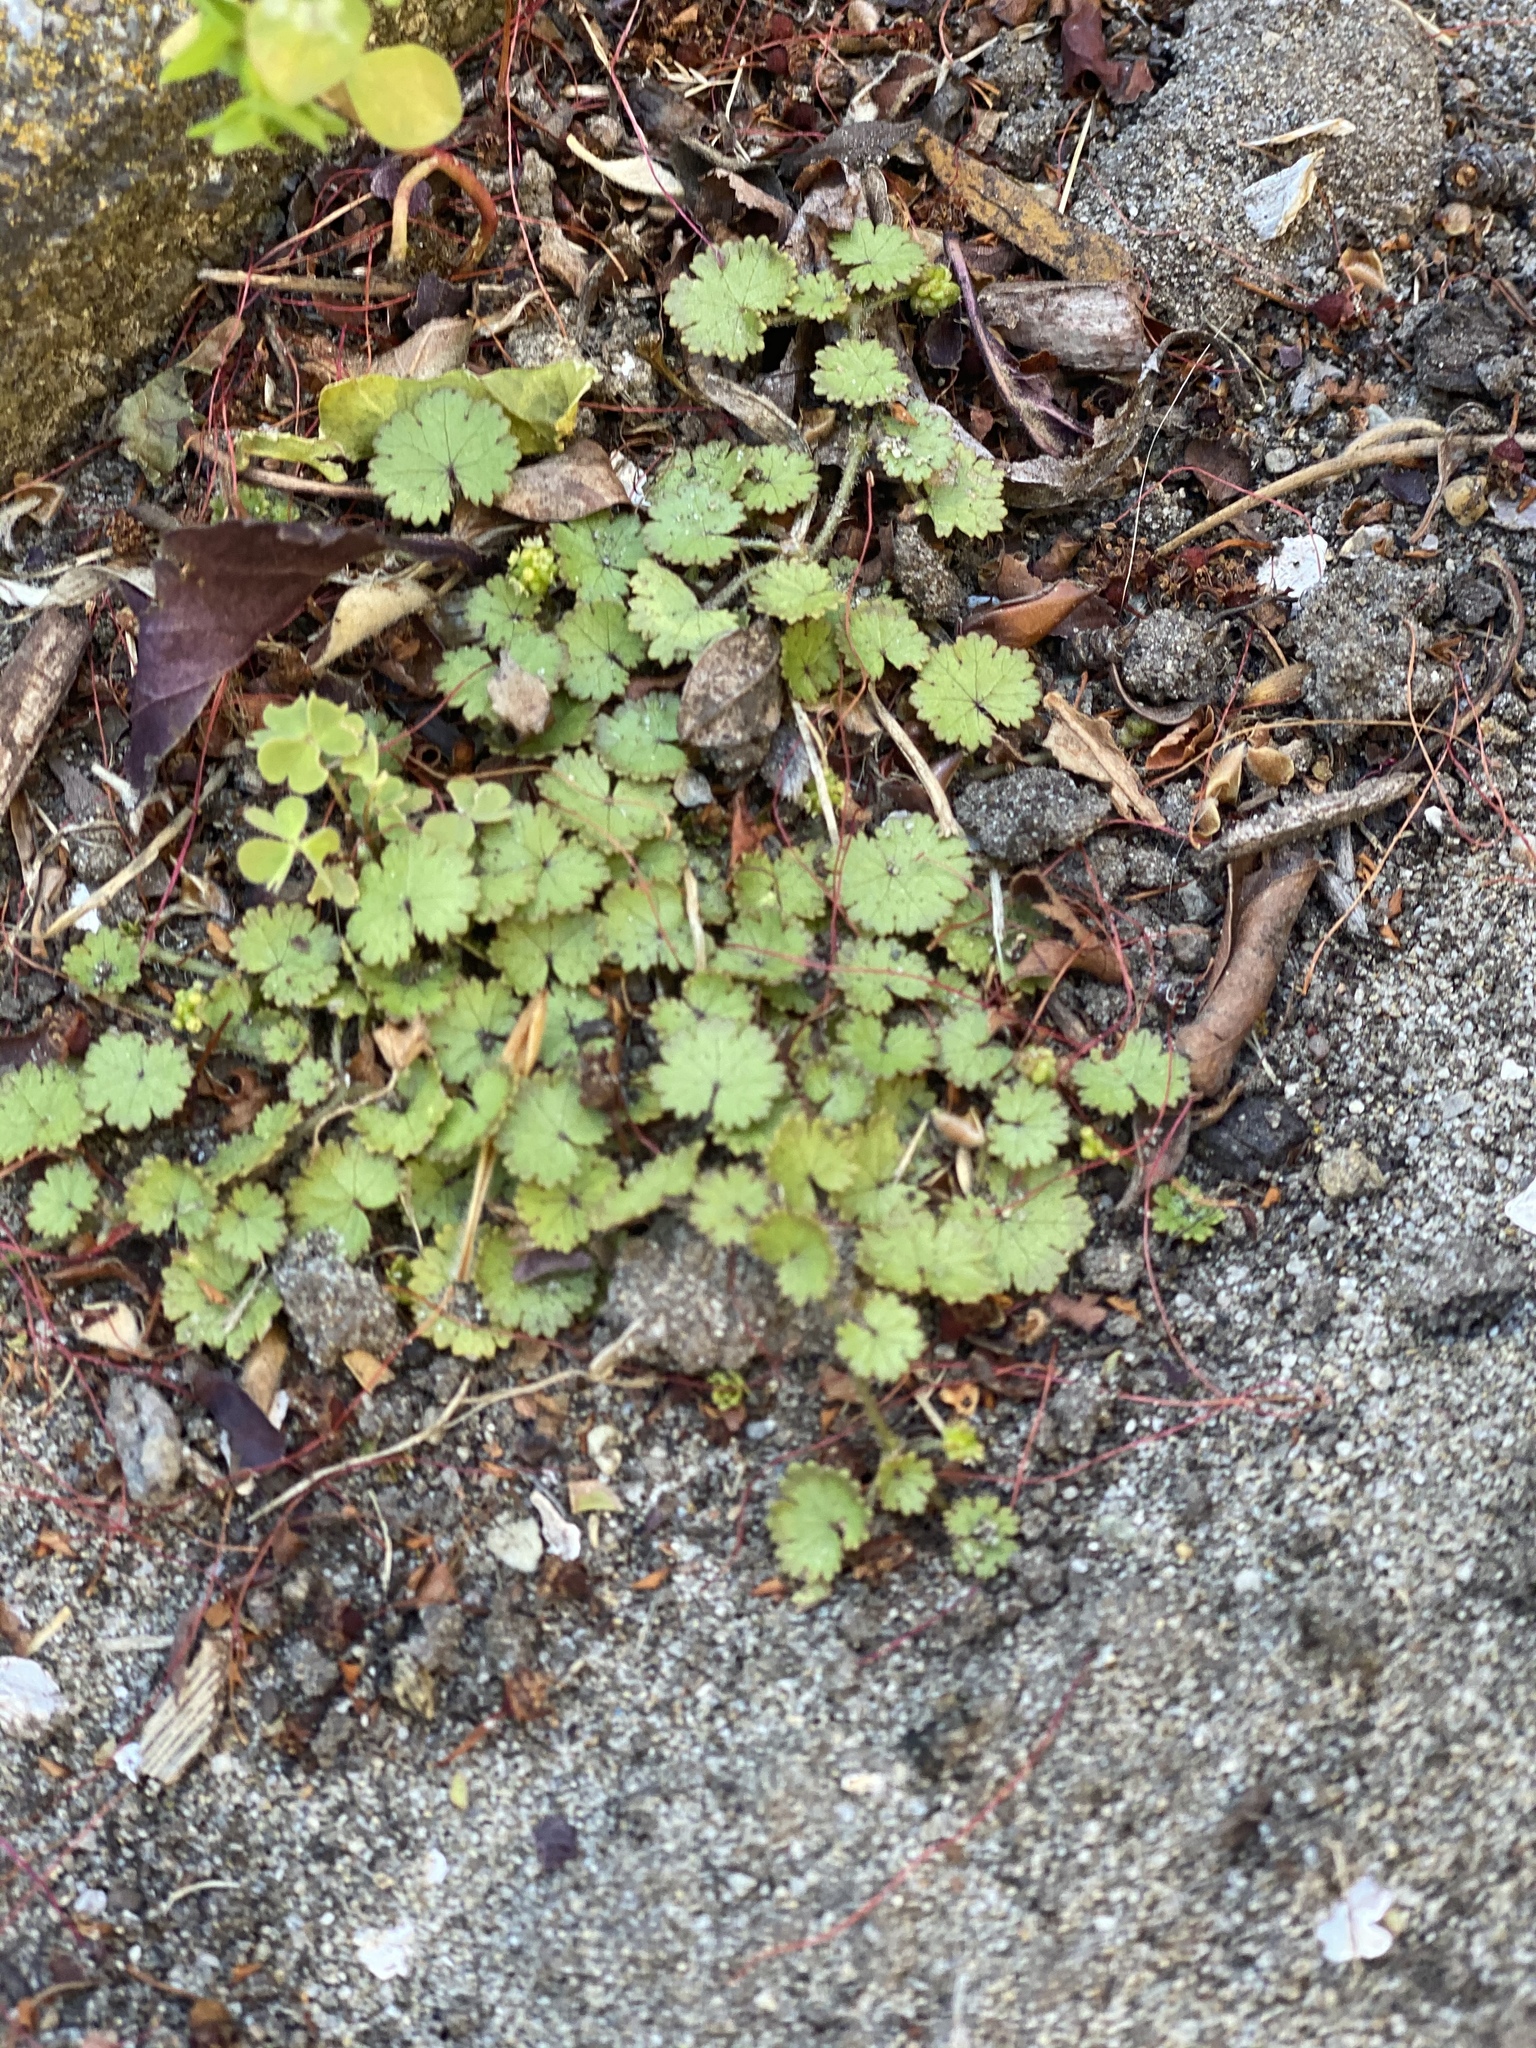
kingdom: Plantae
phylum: Tracheophyta
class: Magnoliopsida
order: Apiales
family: Araliaceae
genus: Hydrocotyle
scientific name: Hydrocotyle moschata
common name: Hairy pennywort
